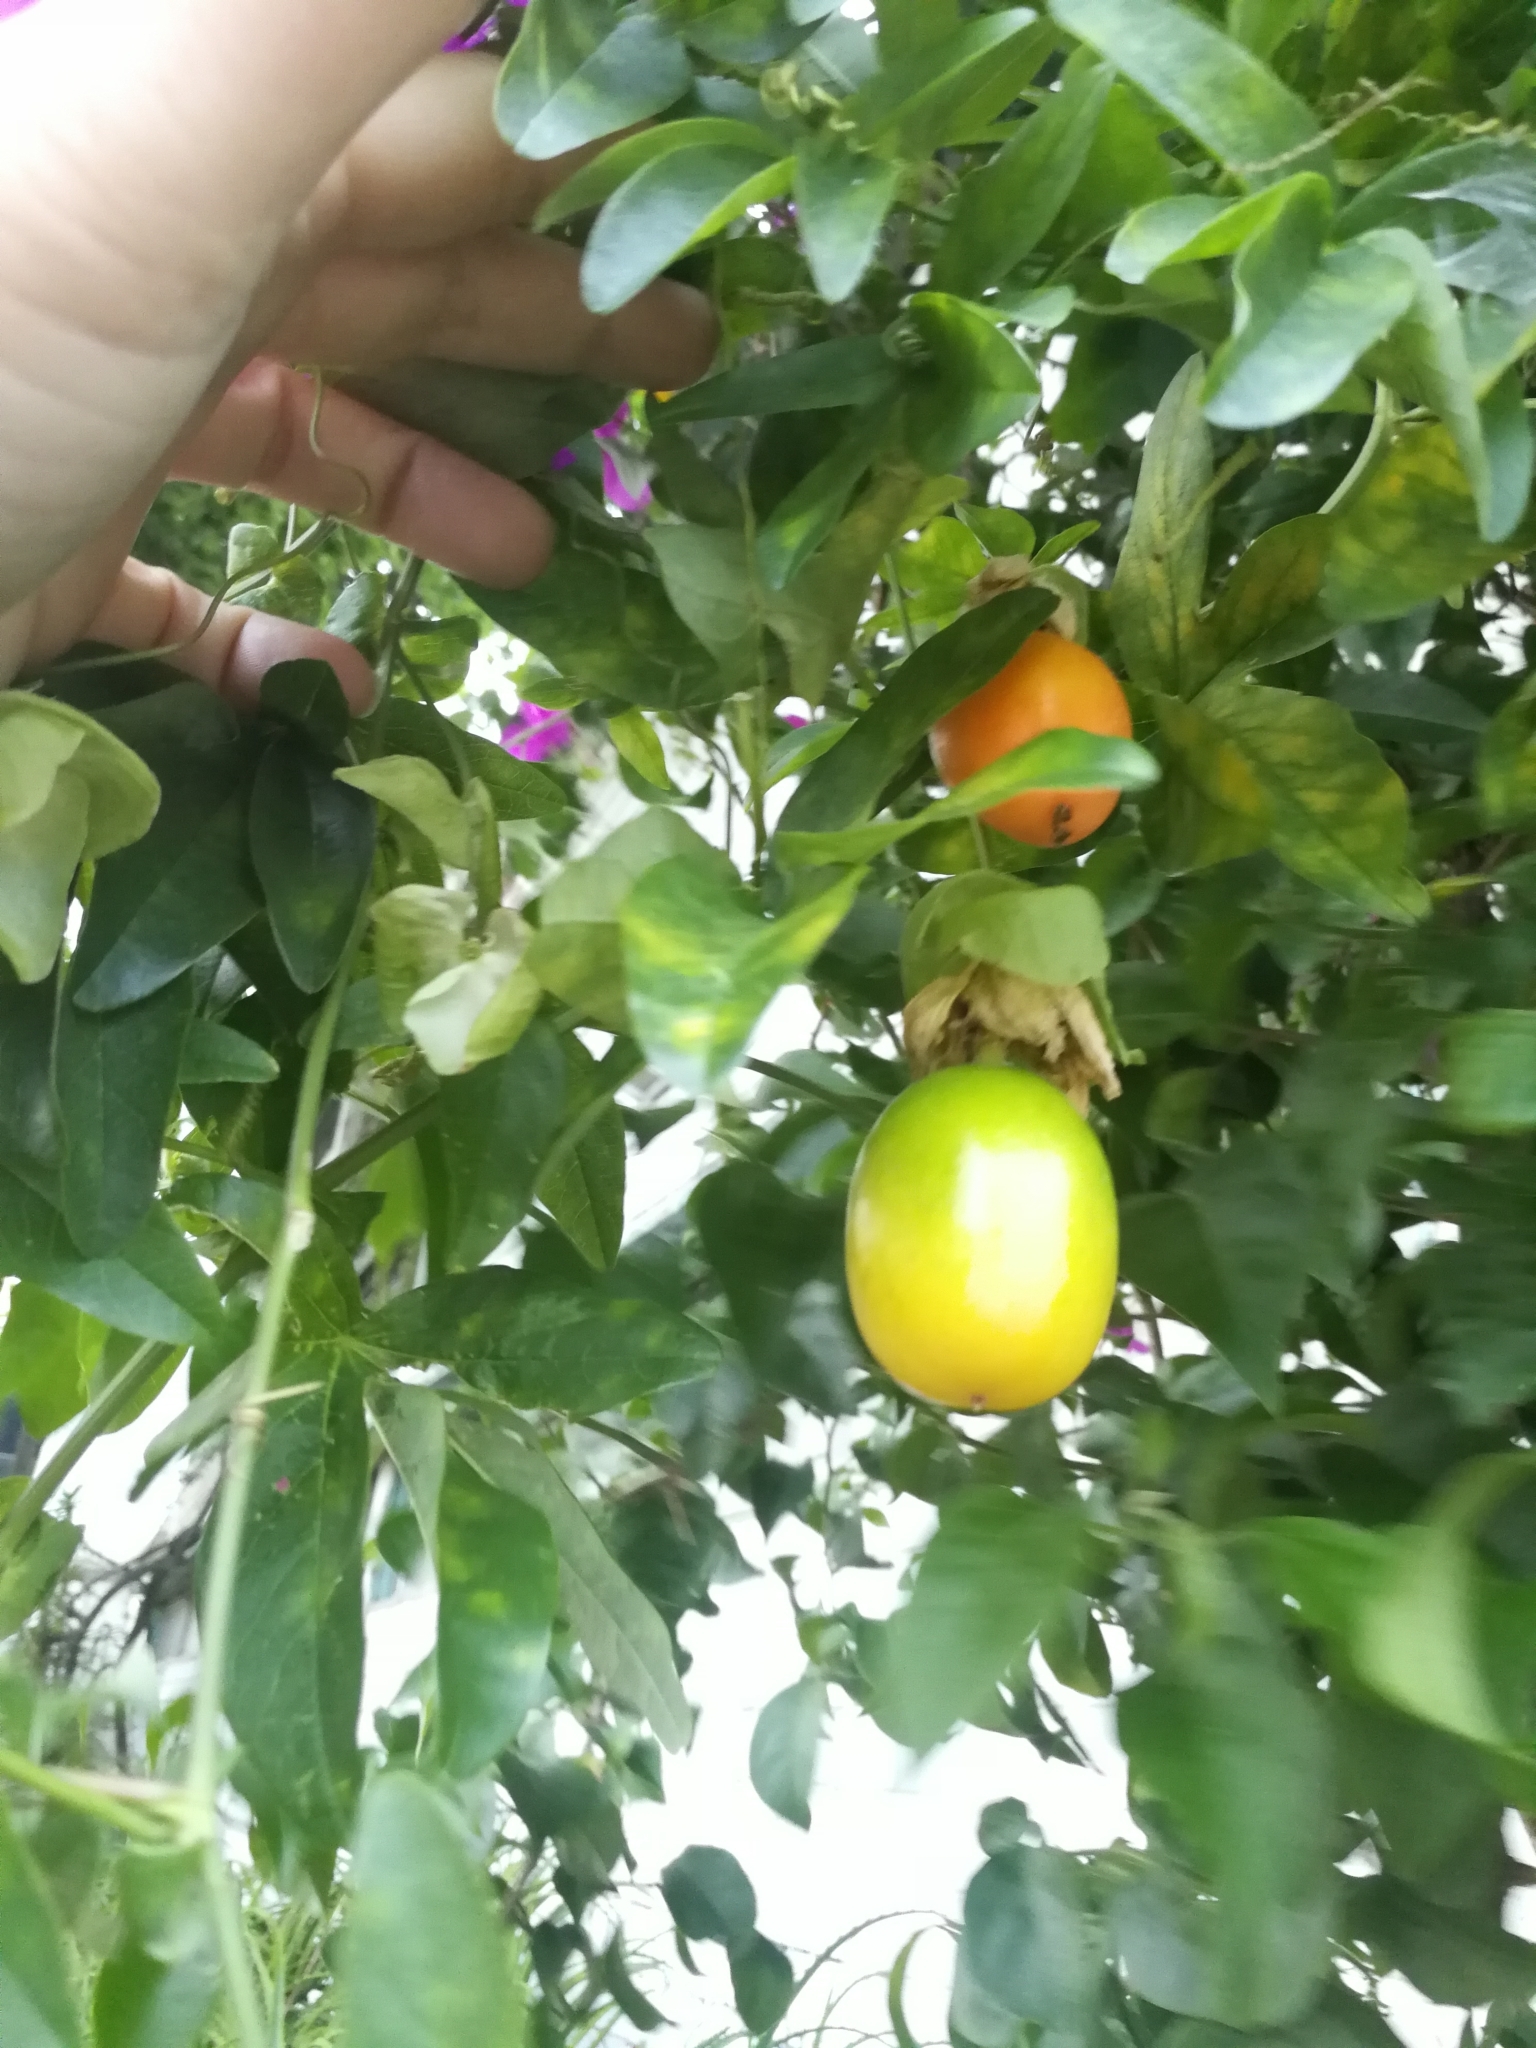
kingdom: Plantae
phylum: Tracheophyta
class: Magnoliopsida
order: Malpighiales
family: Passifloraceae
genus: Passiflora
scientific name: Passiflora caerulea
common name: Blue passionflower
